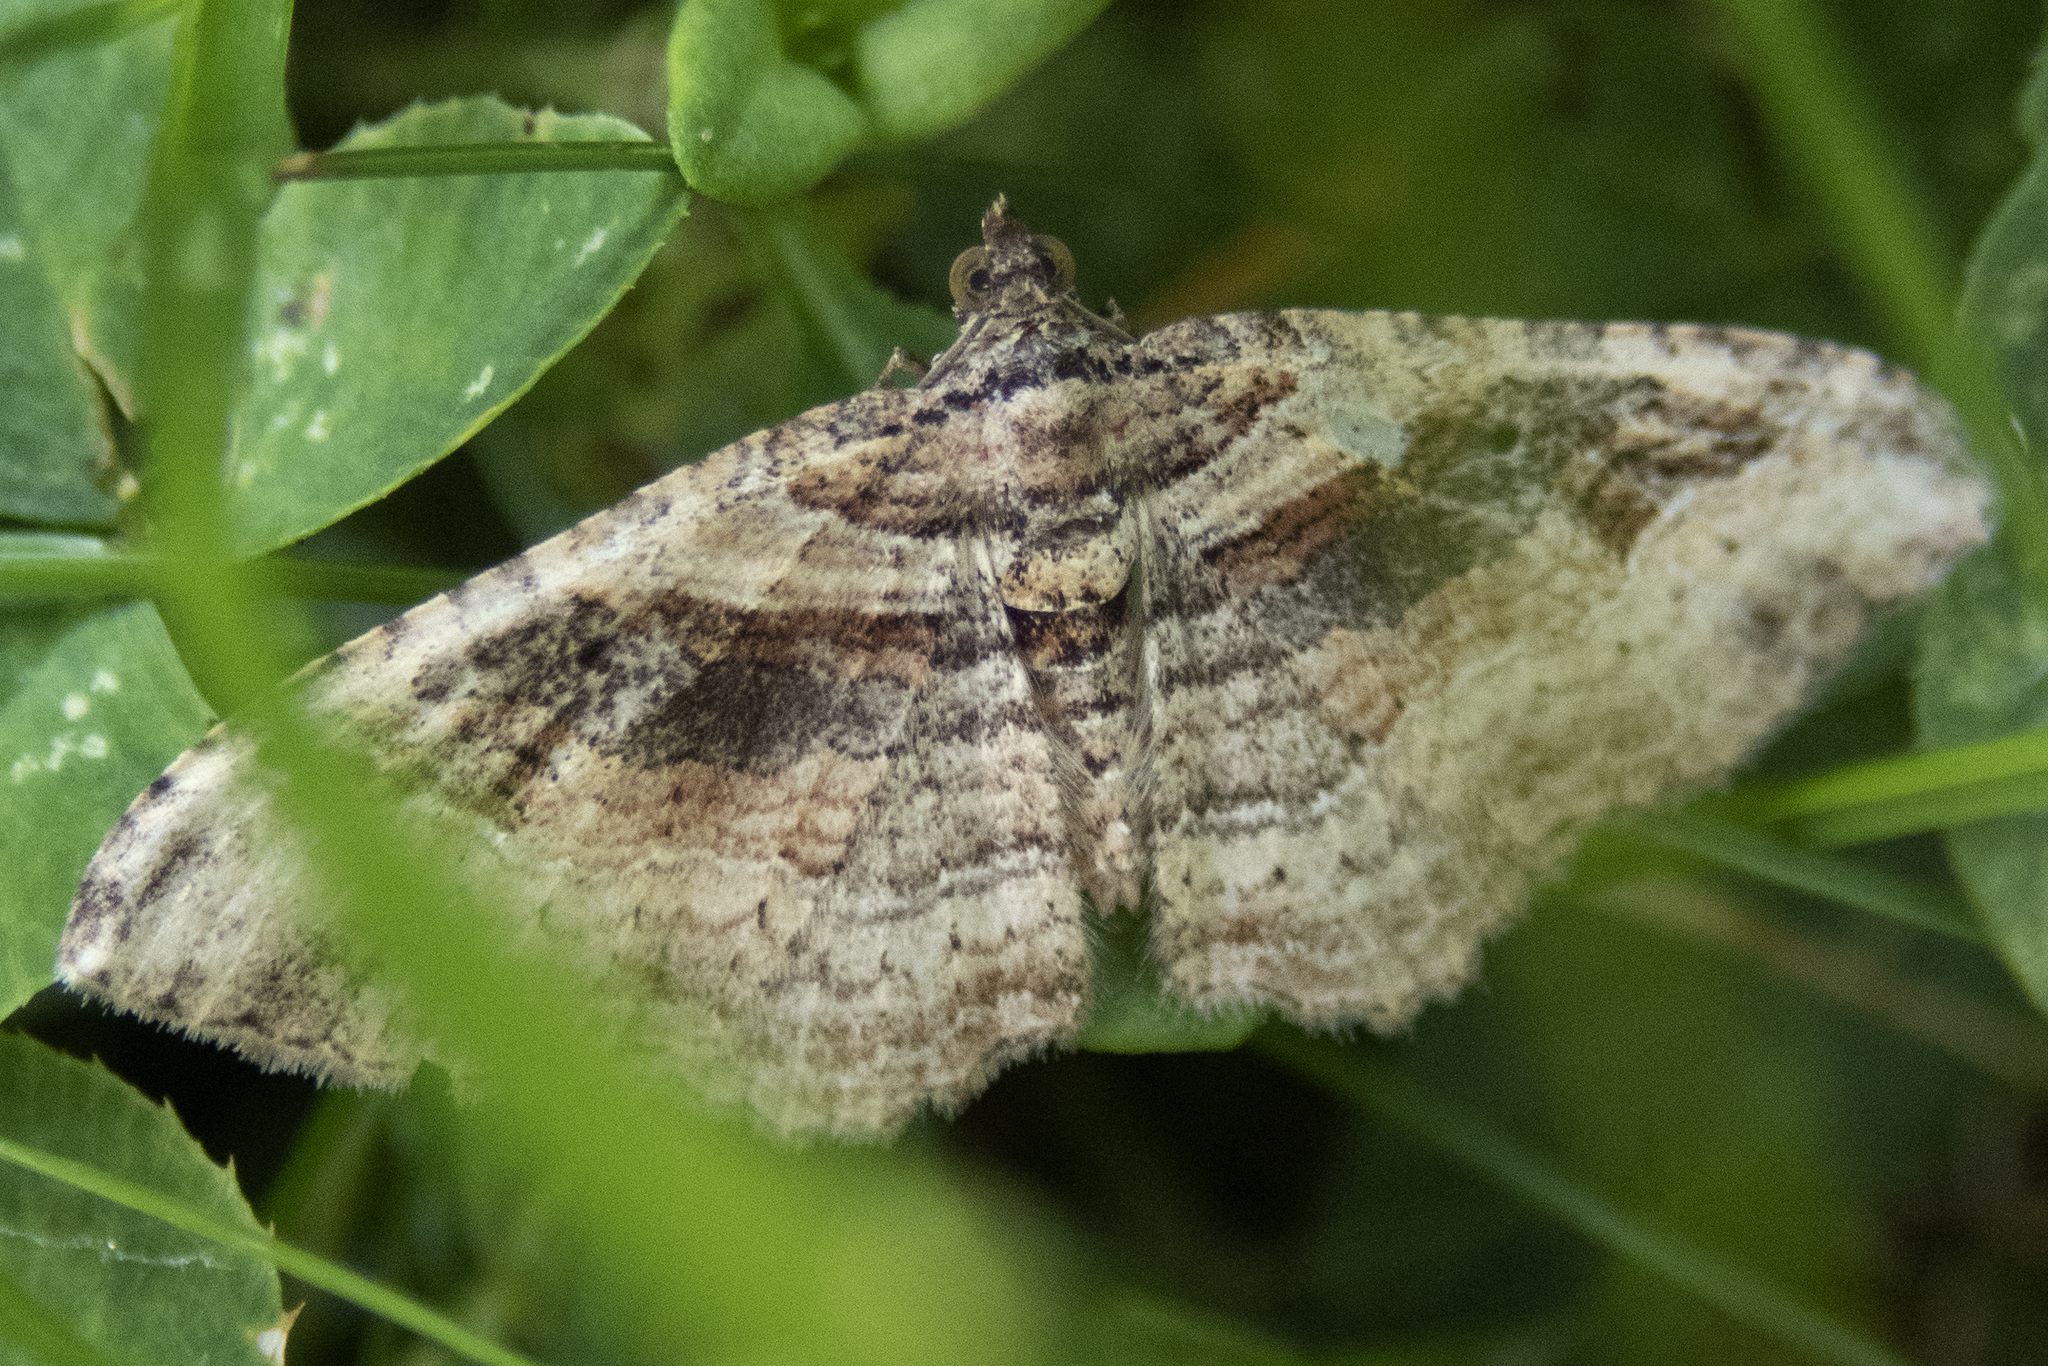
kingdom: Animalia
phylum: Arthropoda
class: Insecta
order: Lepidoptera
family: Geometridae
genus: Costaconvexa
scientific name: Costaconvexa centrostrigaria
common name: Bent-line carpet
